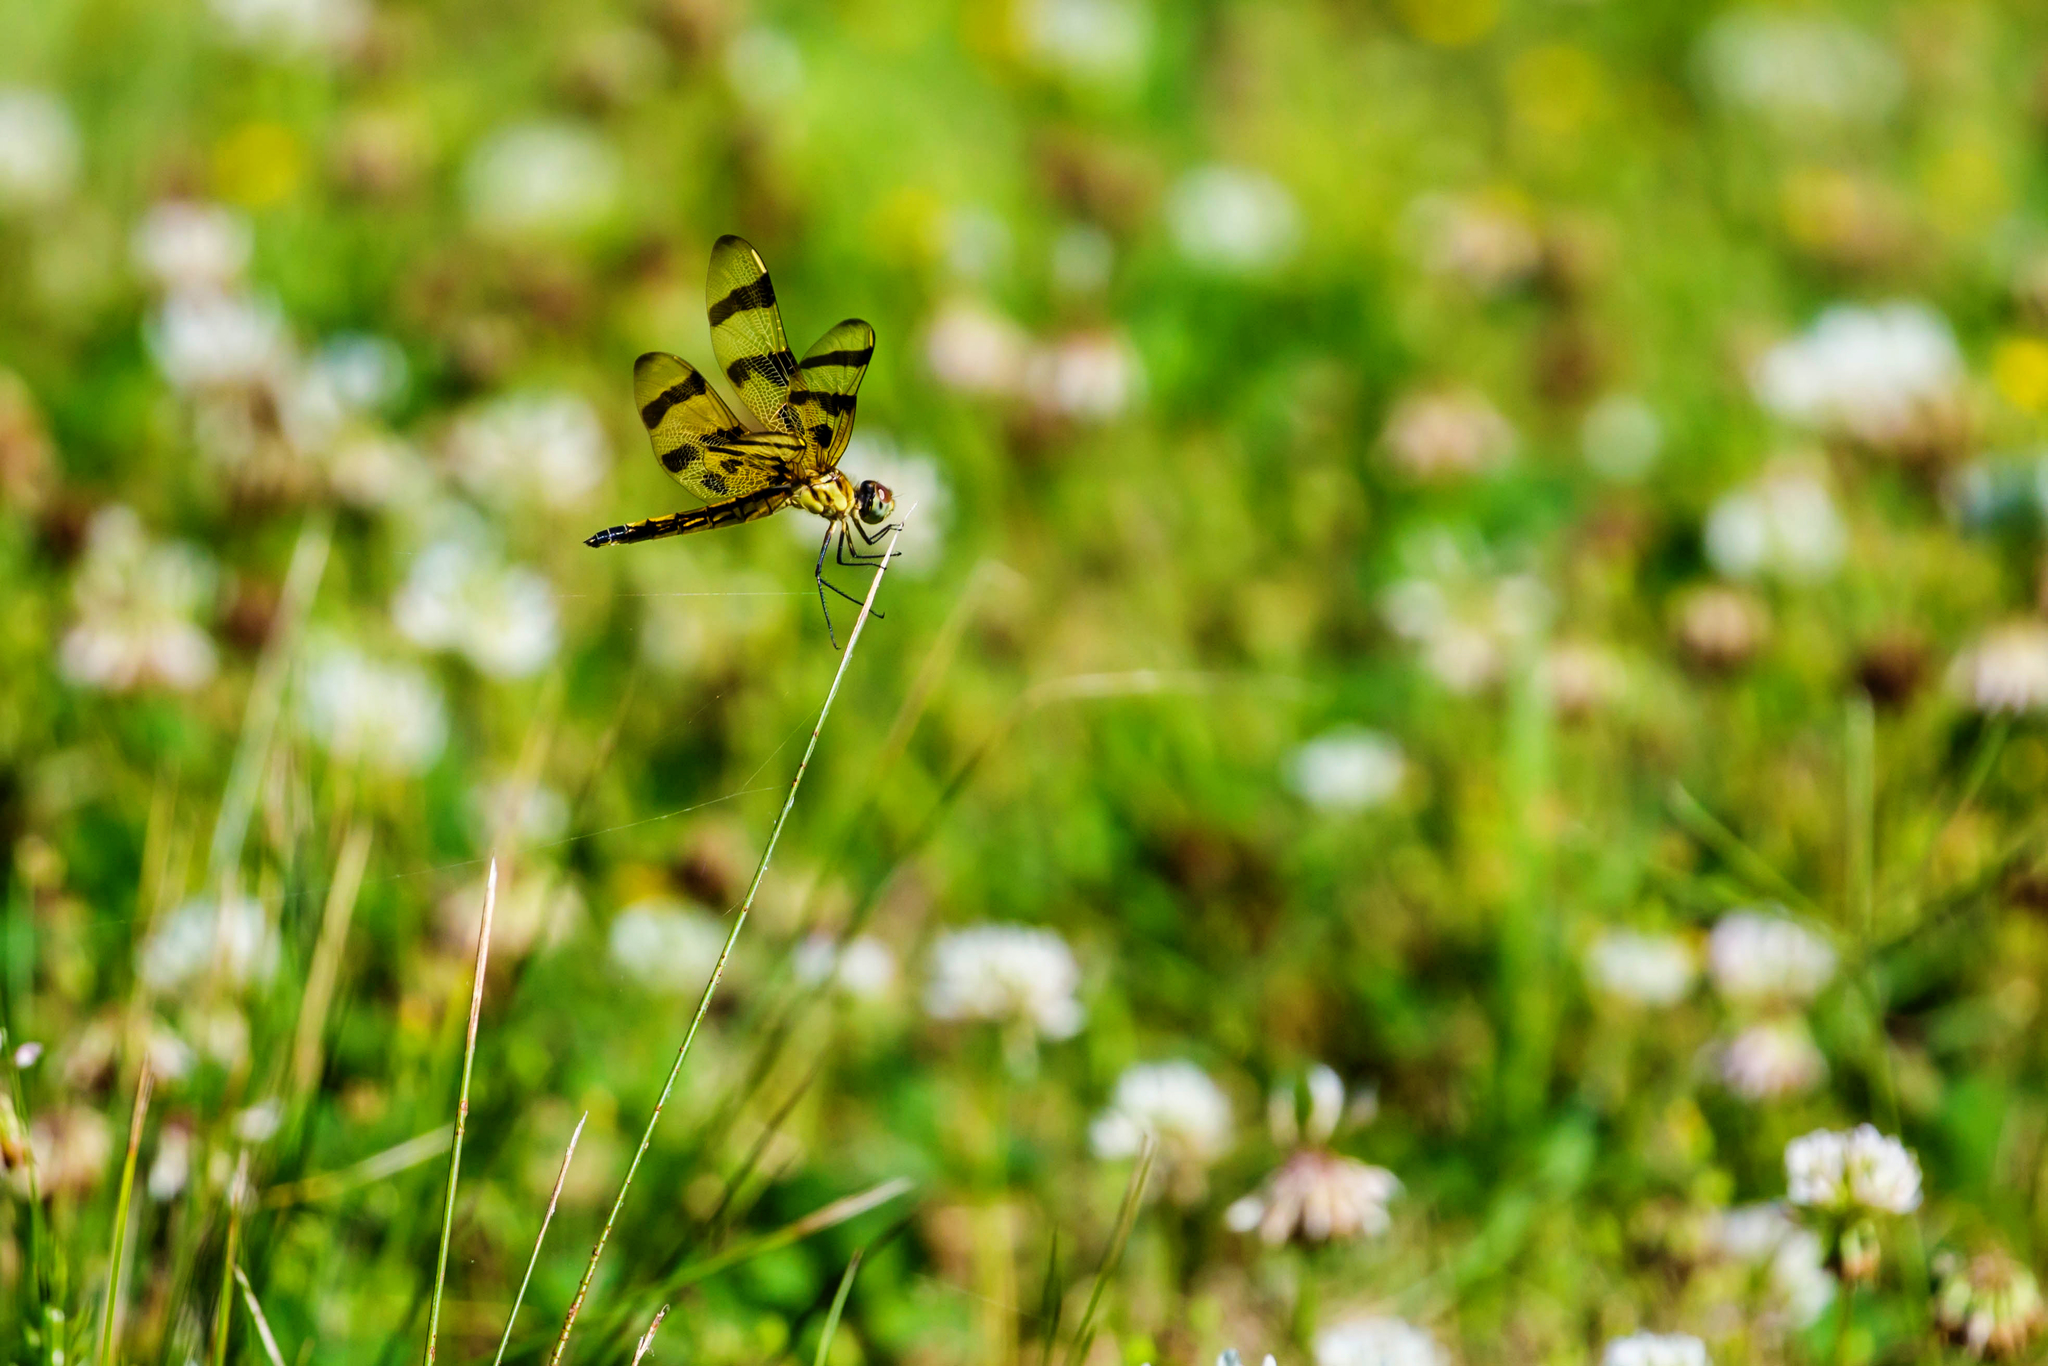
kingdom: Animalia
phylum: Arthropoda
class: Insecta
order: Odonata
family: Libellulidae
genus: Celithemis
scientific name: Celithemis eponina
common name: Halloween pennant
